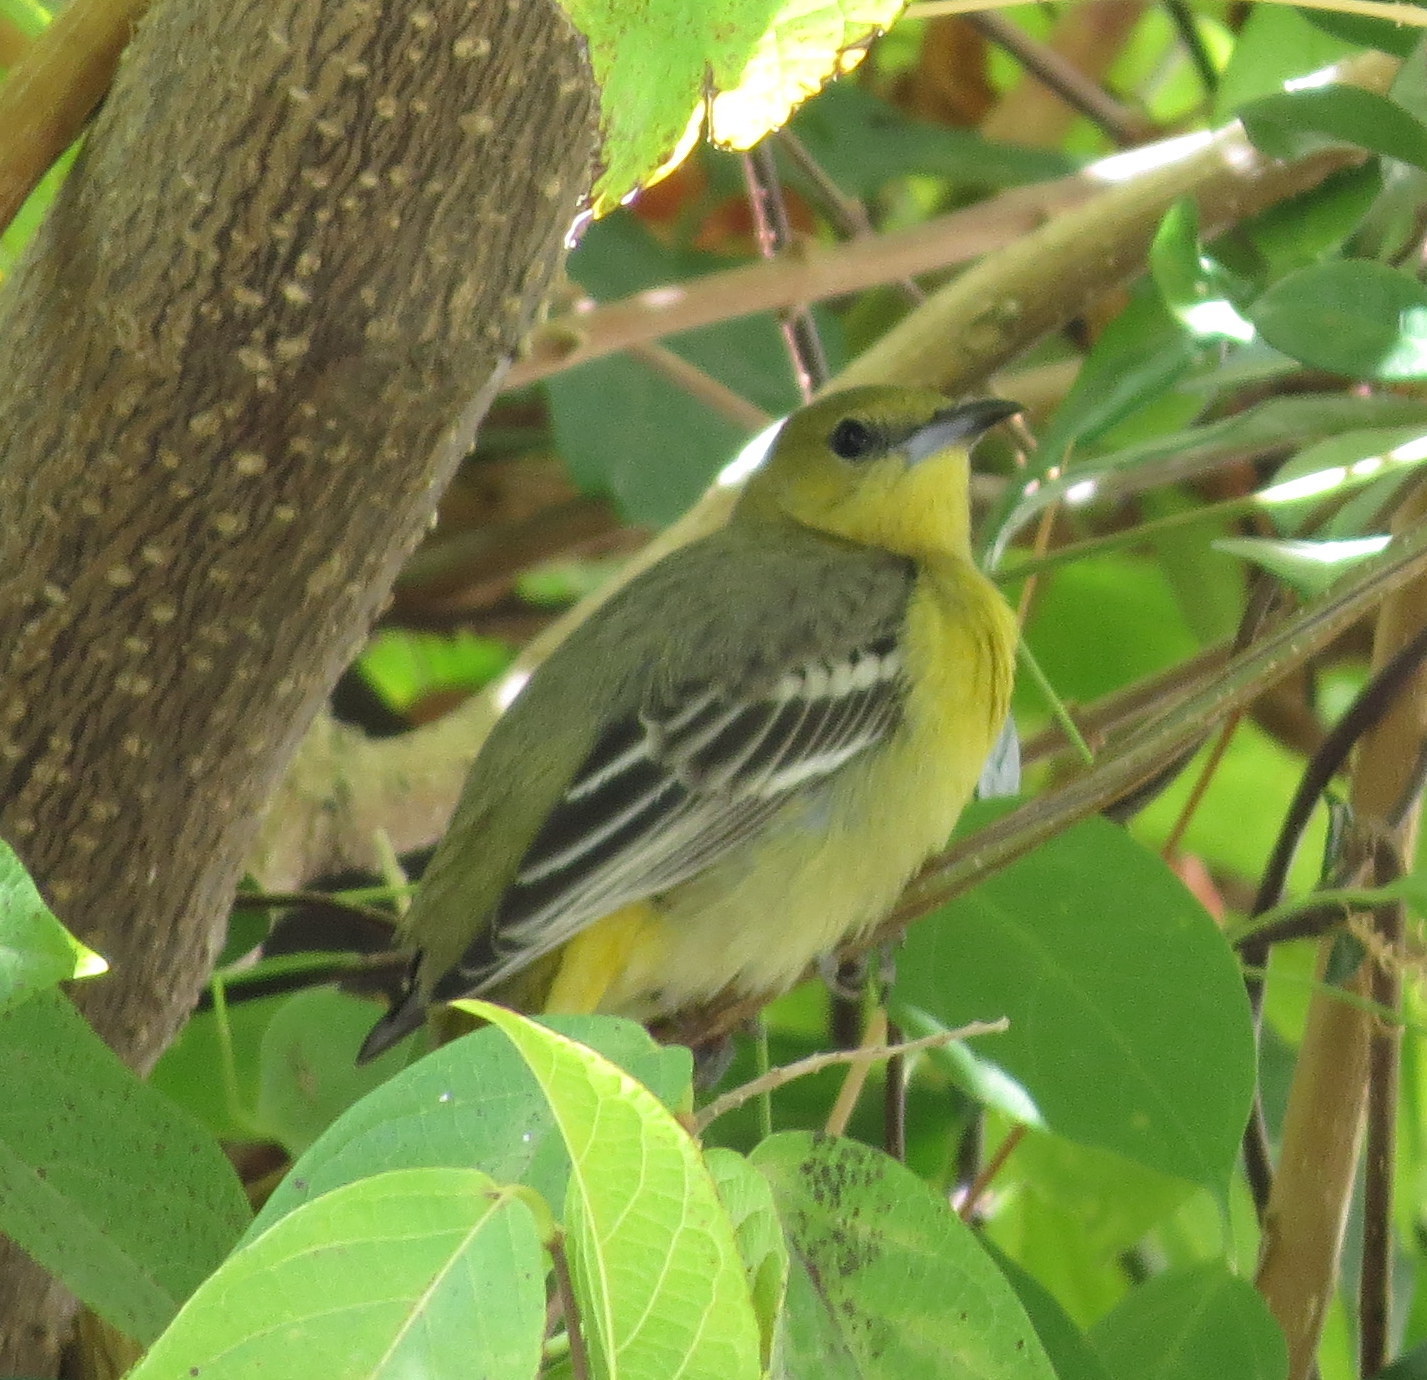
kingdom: Animalia
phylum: Chordata
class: Aves
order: Passeriformes
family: Icteridae
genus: Icterus
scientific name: Icterus cucullatus
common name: Hooded oriole
